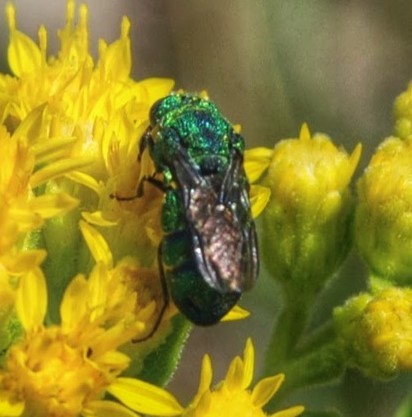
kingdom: Animalia
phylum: Arthropoda
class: Insecta
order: Hymenoptera
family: Chrysididae
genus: Parnopes
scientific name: Parnopes
